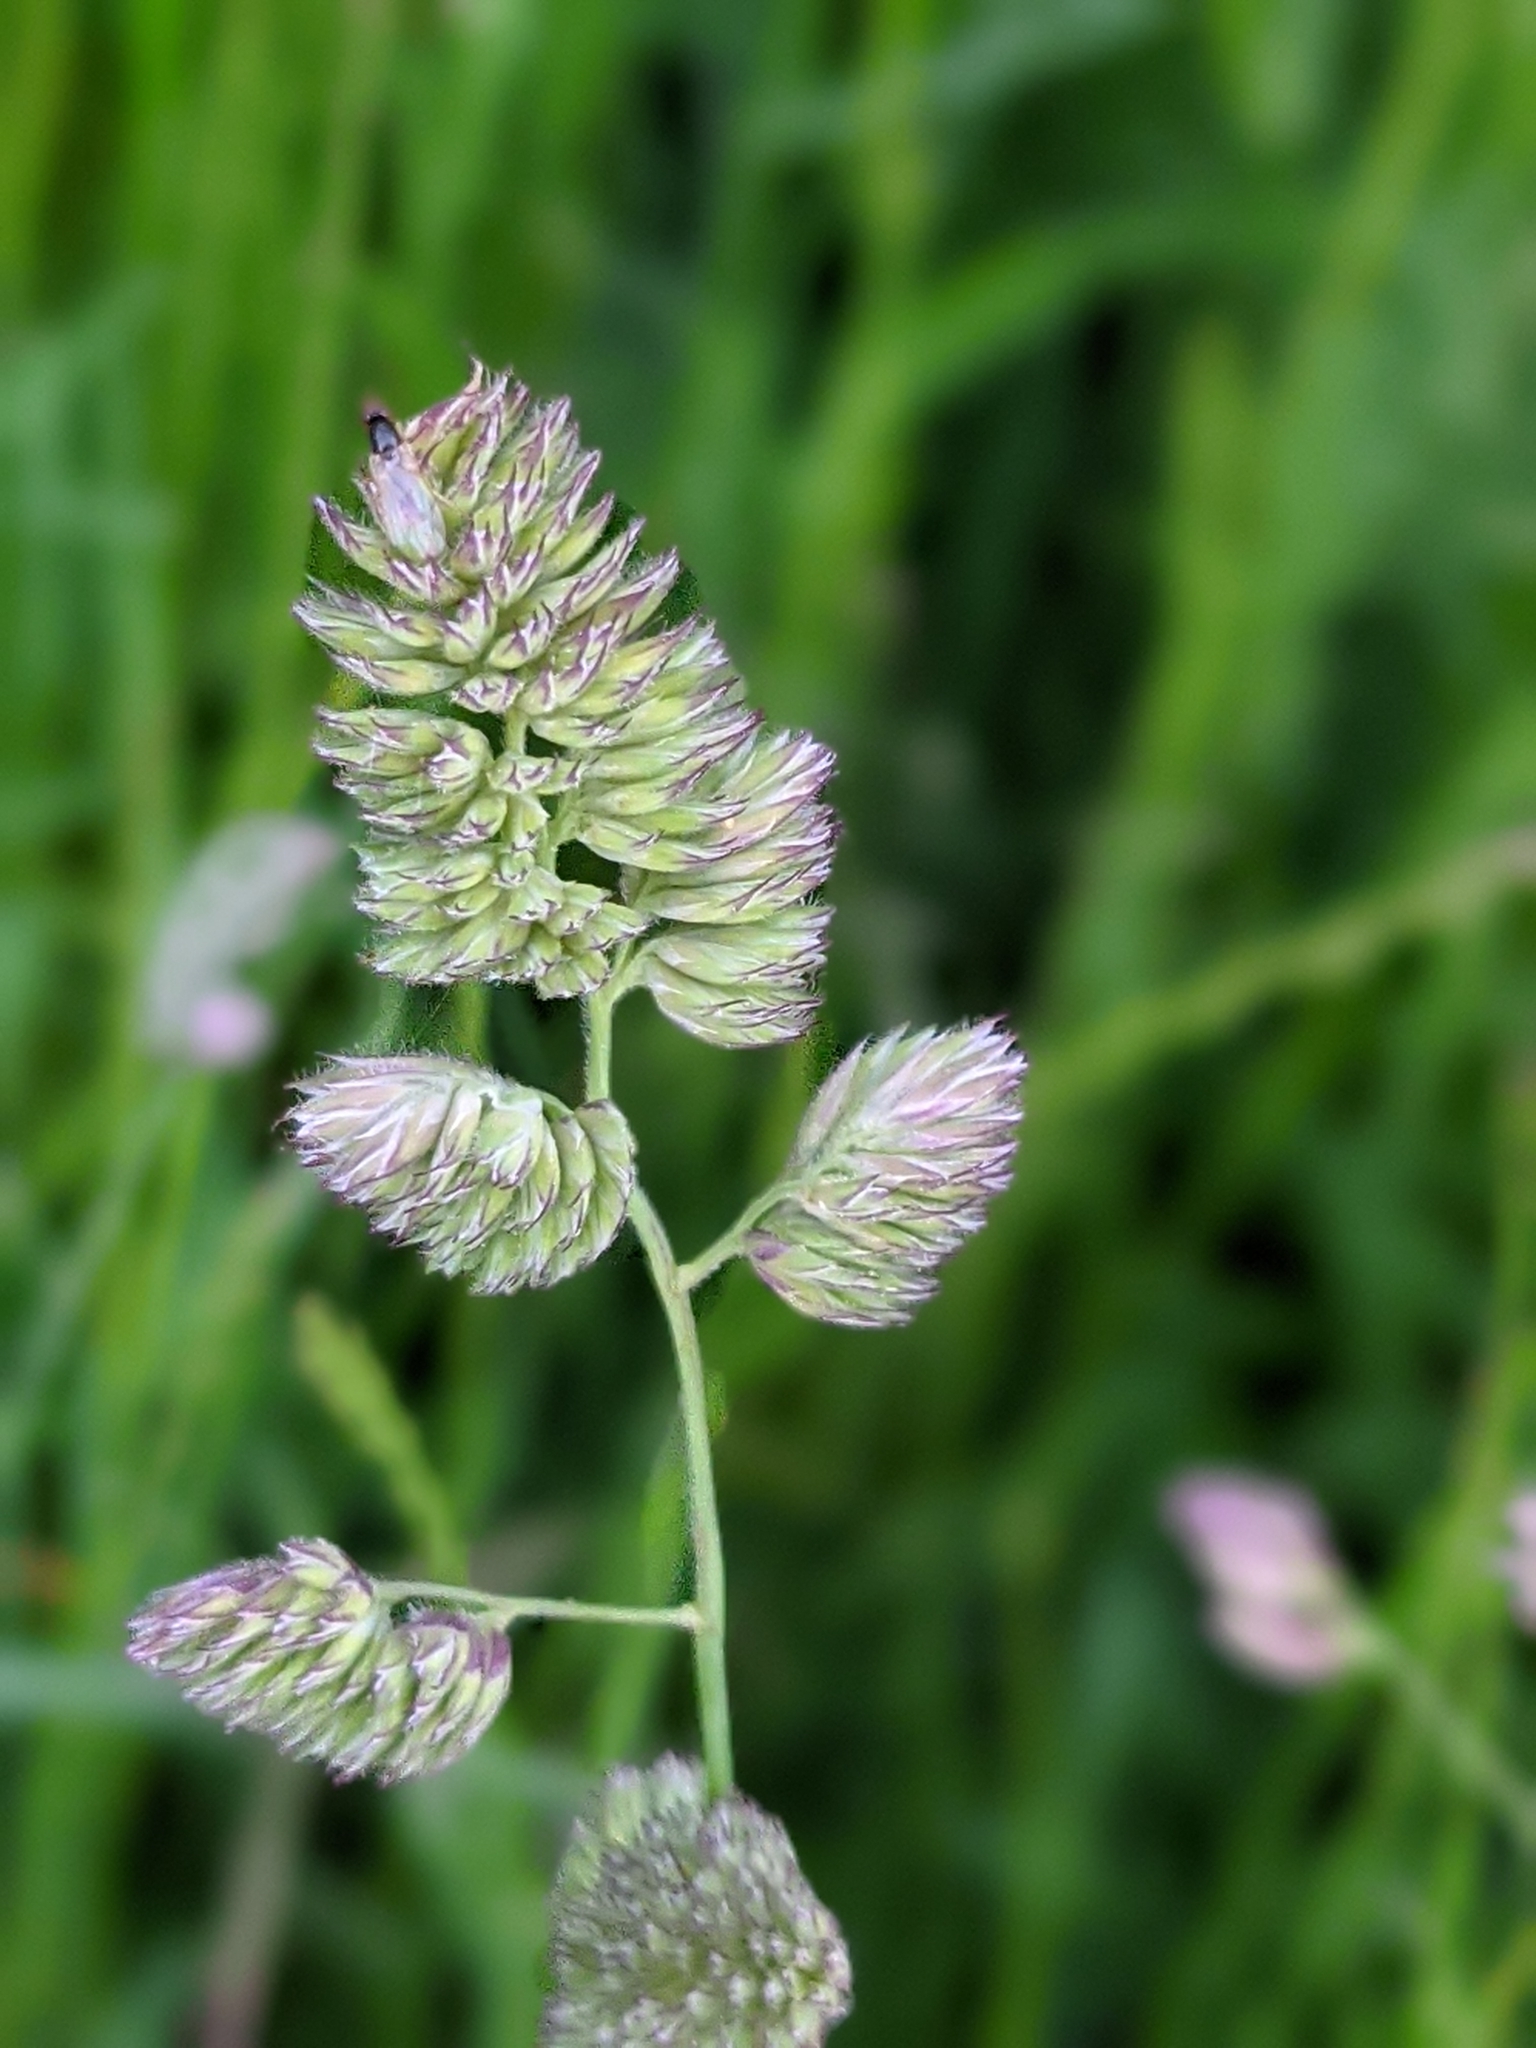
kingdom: Plantae
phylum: Tracheophyta
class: Liliopsida
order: Poales
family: Poaceae
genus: Dactylis
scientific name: Dactylis glomerata
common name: Orchardgrass
